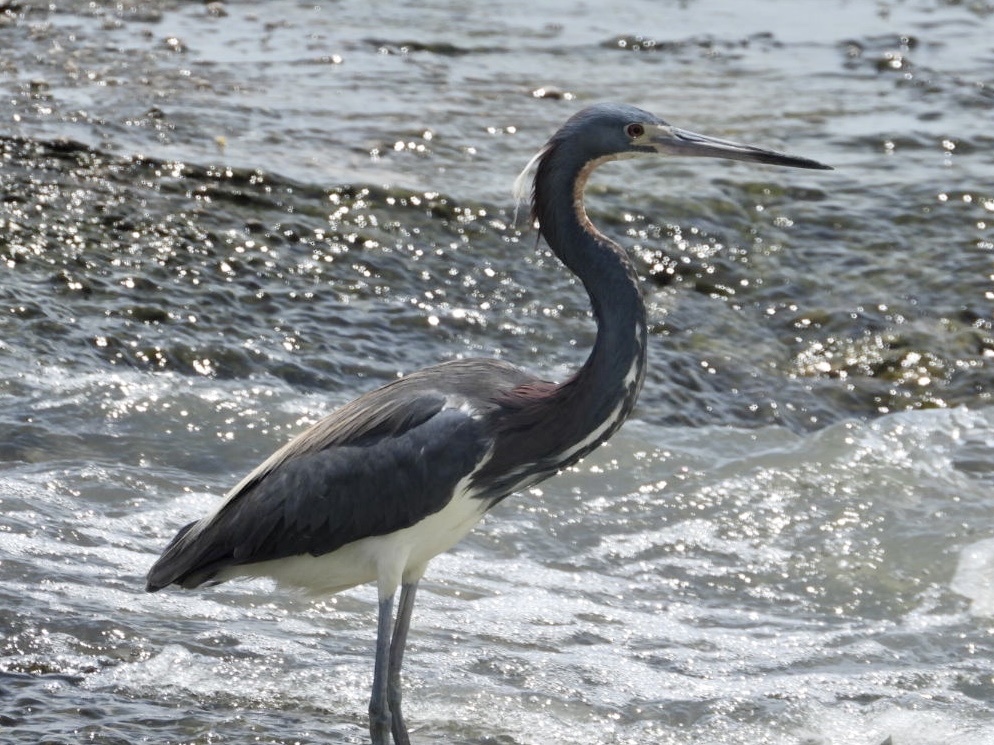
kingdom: Animalia
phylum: Chordata
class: Aves
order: Pelecaniformes
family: Ardeidae
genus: Egretta
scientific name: Egretta tricolor
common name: Tricolored heron
